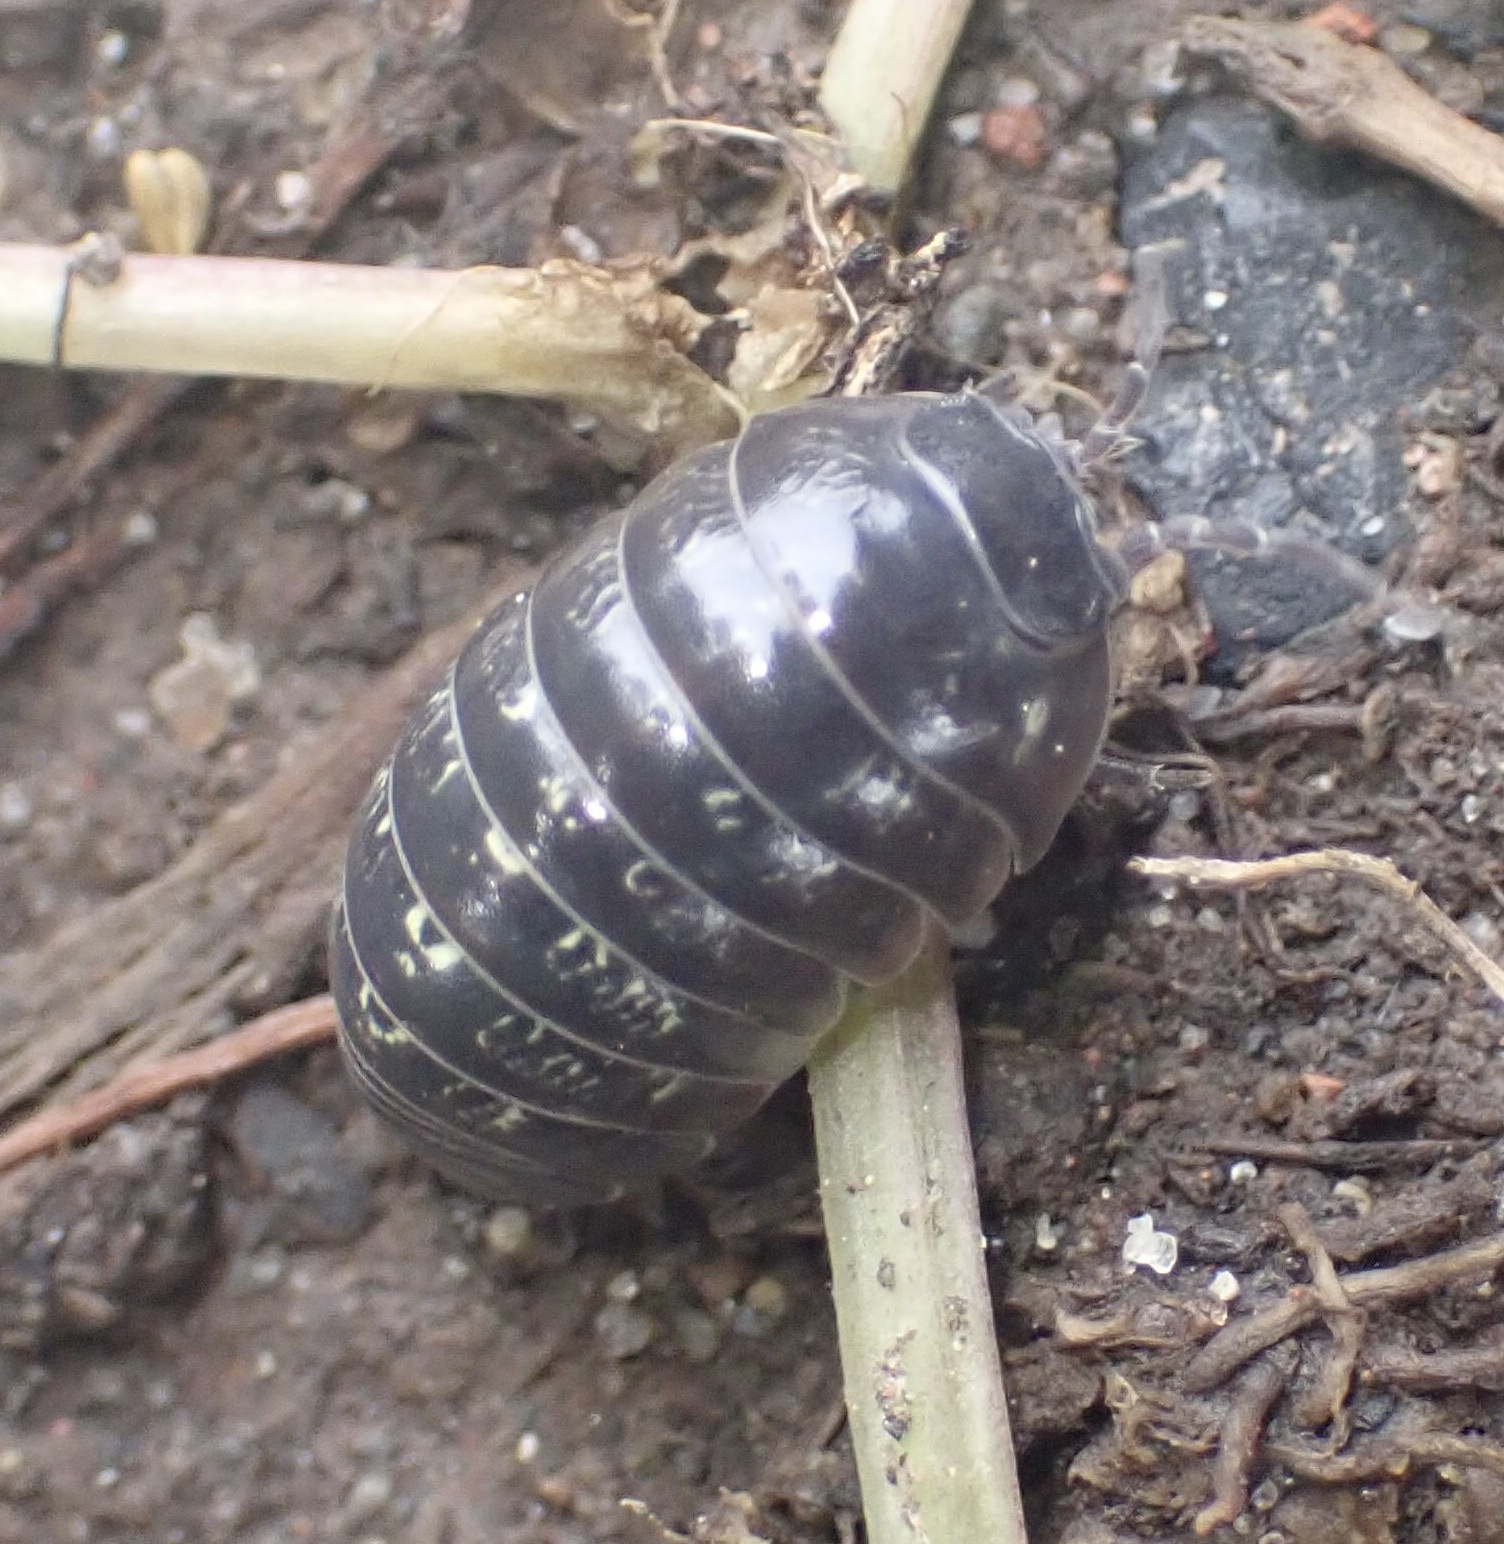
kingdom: Animalia
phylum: Arthropoda
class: Malacostraca
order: Isopoda
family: Armadillidiidae
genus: Armadillidium
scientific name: Armadillidium vulgare
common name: Common pill woodlouse
